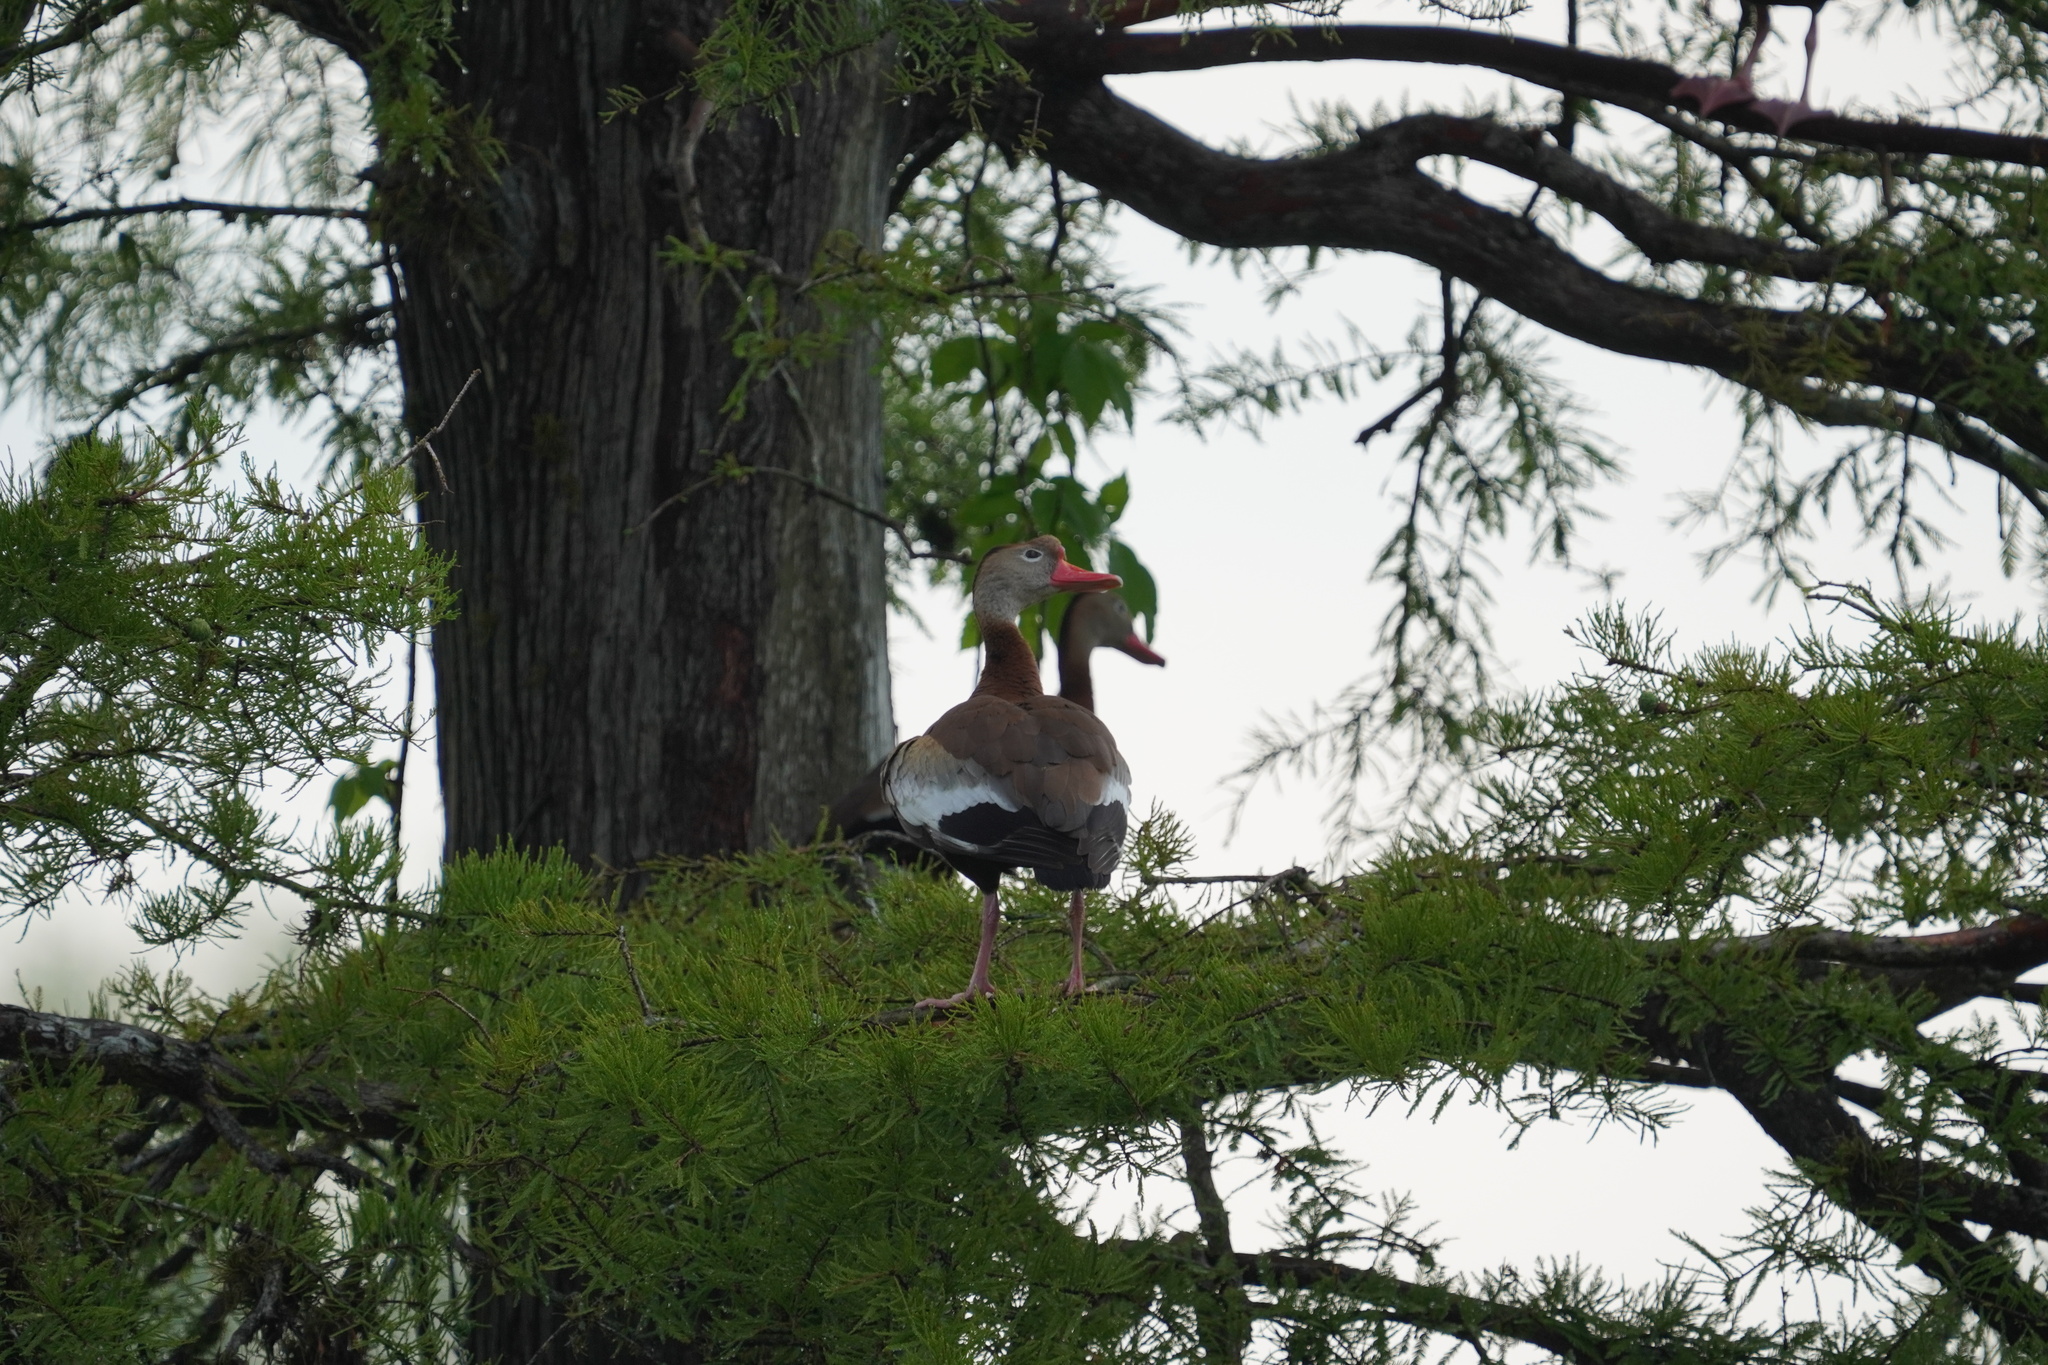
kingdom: Animalia
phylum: Chordata
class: Aves
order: Anseriformes
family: Anatidae
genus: Dendrocygna
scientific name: Dendrocygna autumnalis
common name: Black-bellied whistling duck
